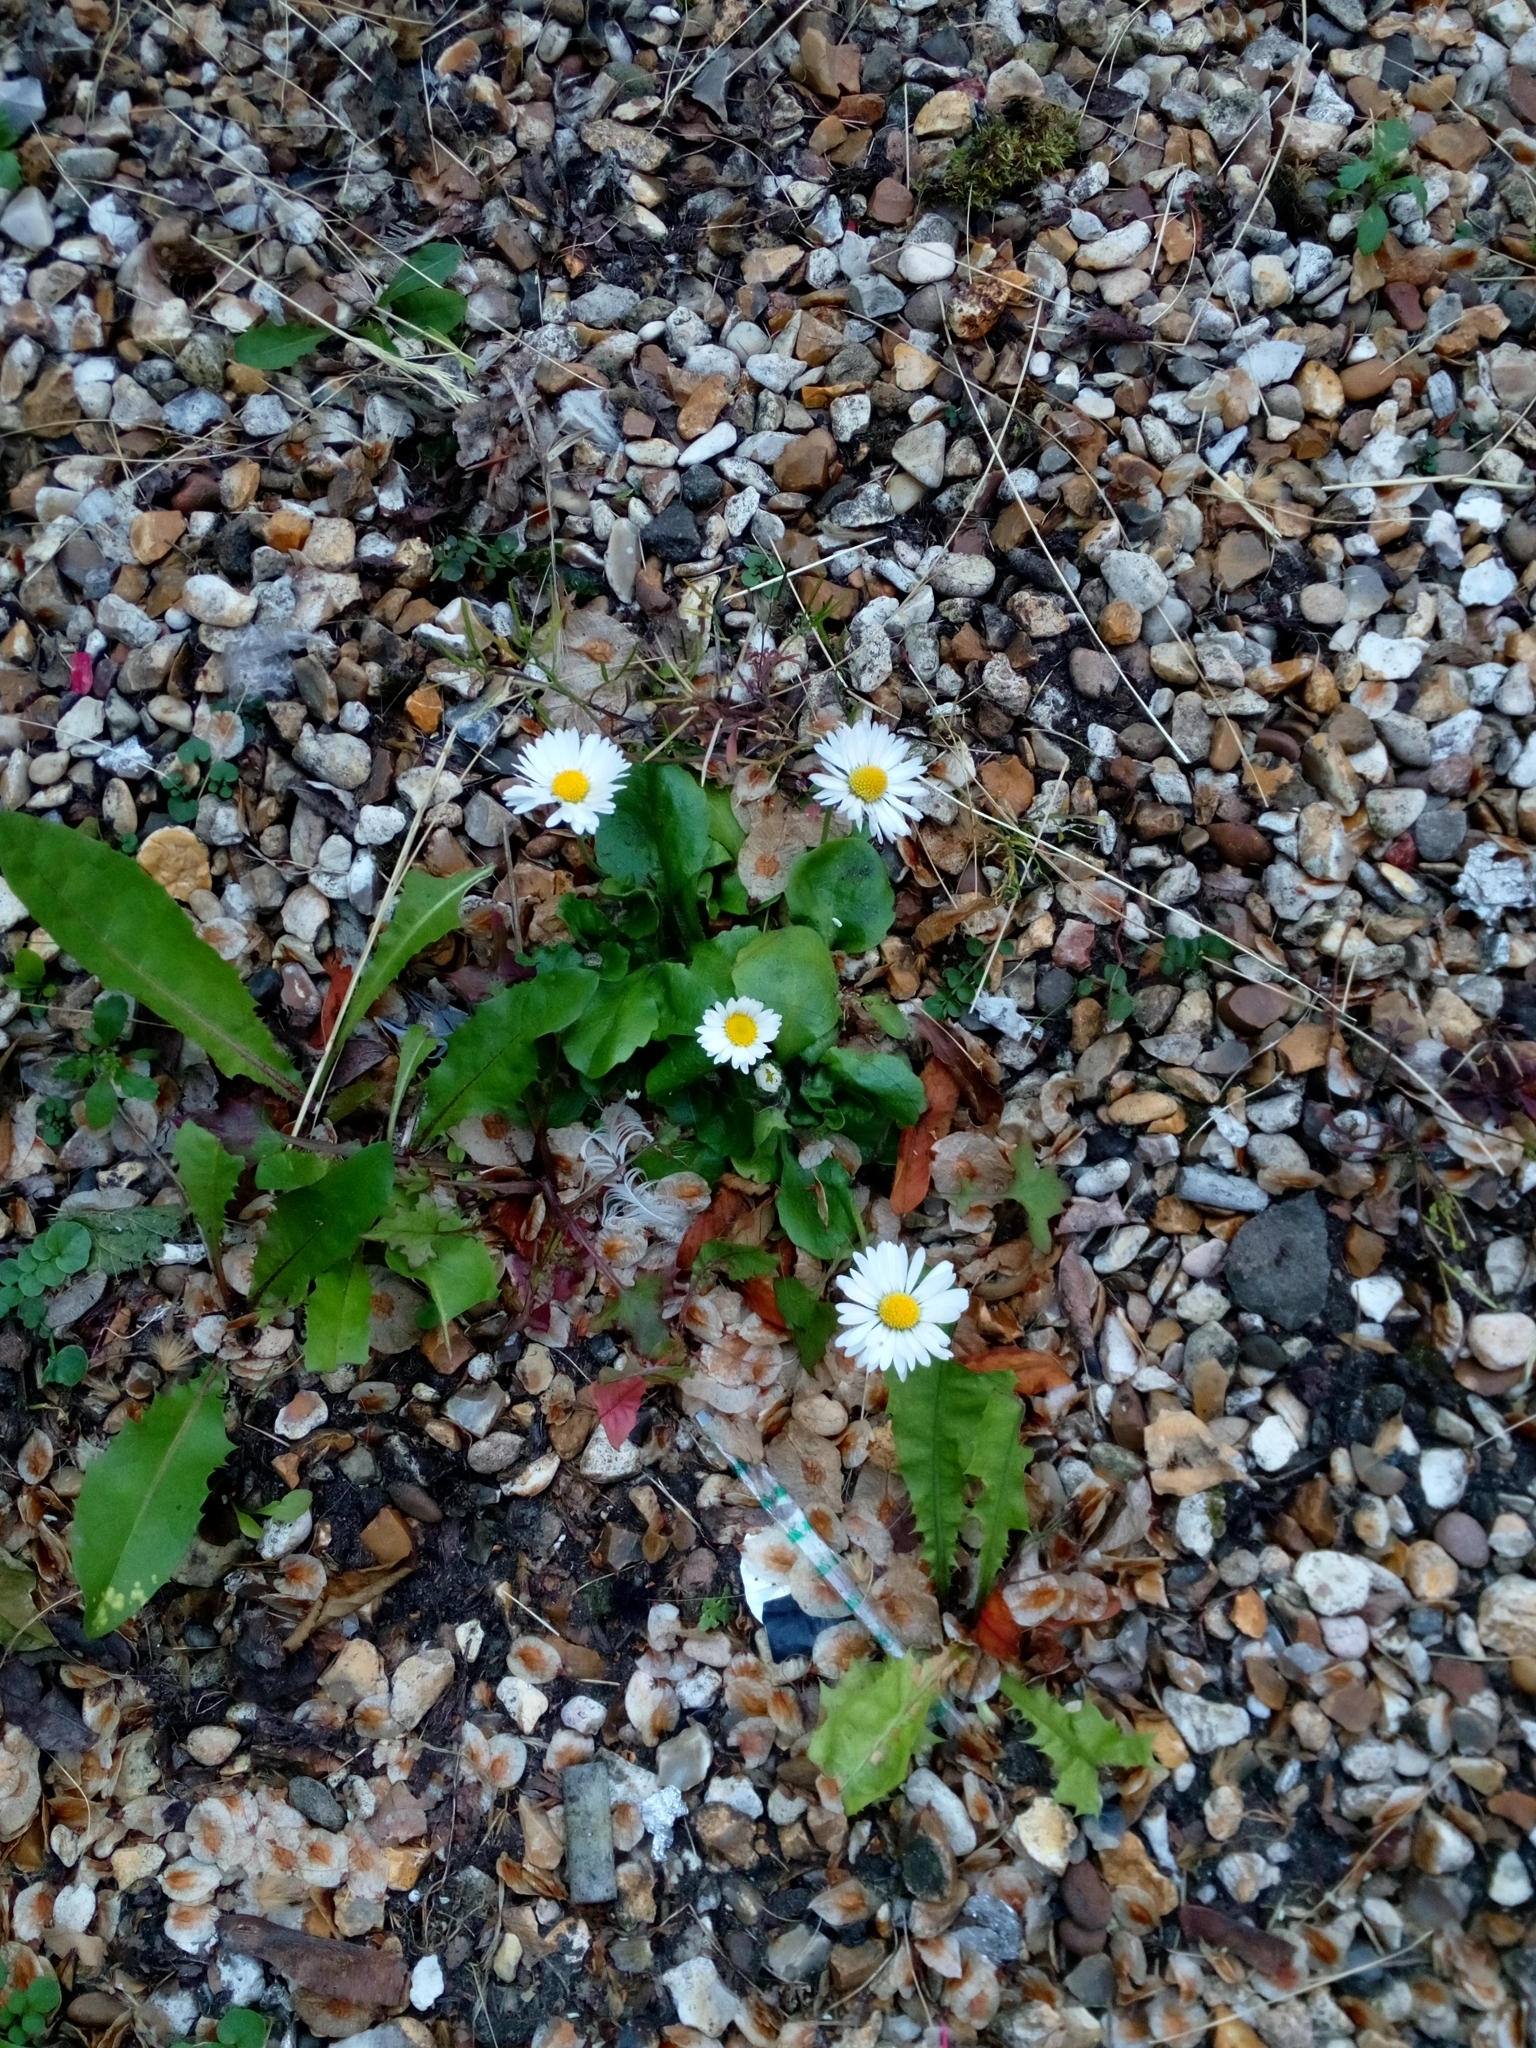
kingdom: Plantae
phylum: Tracheophyta
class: Magnoliopsida
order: Asterales
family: Asteraceae
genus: Bellis
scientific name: Bellis perennis
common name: Lawndaisy
